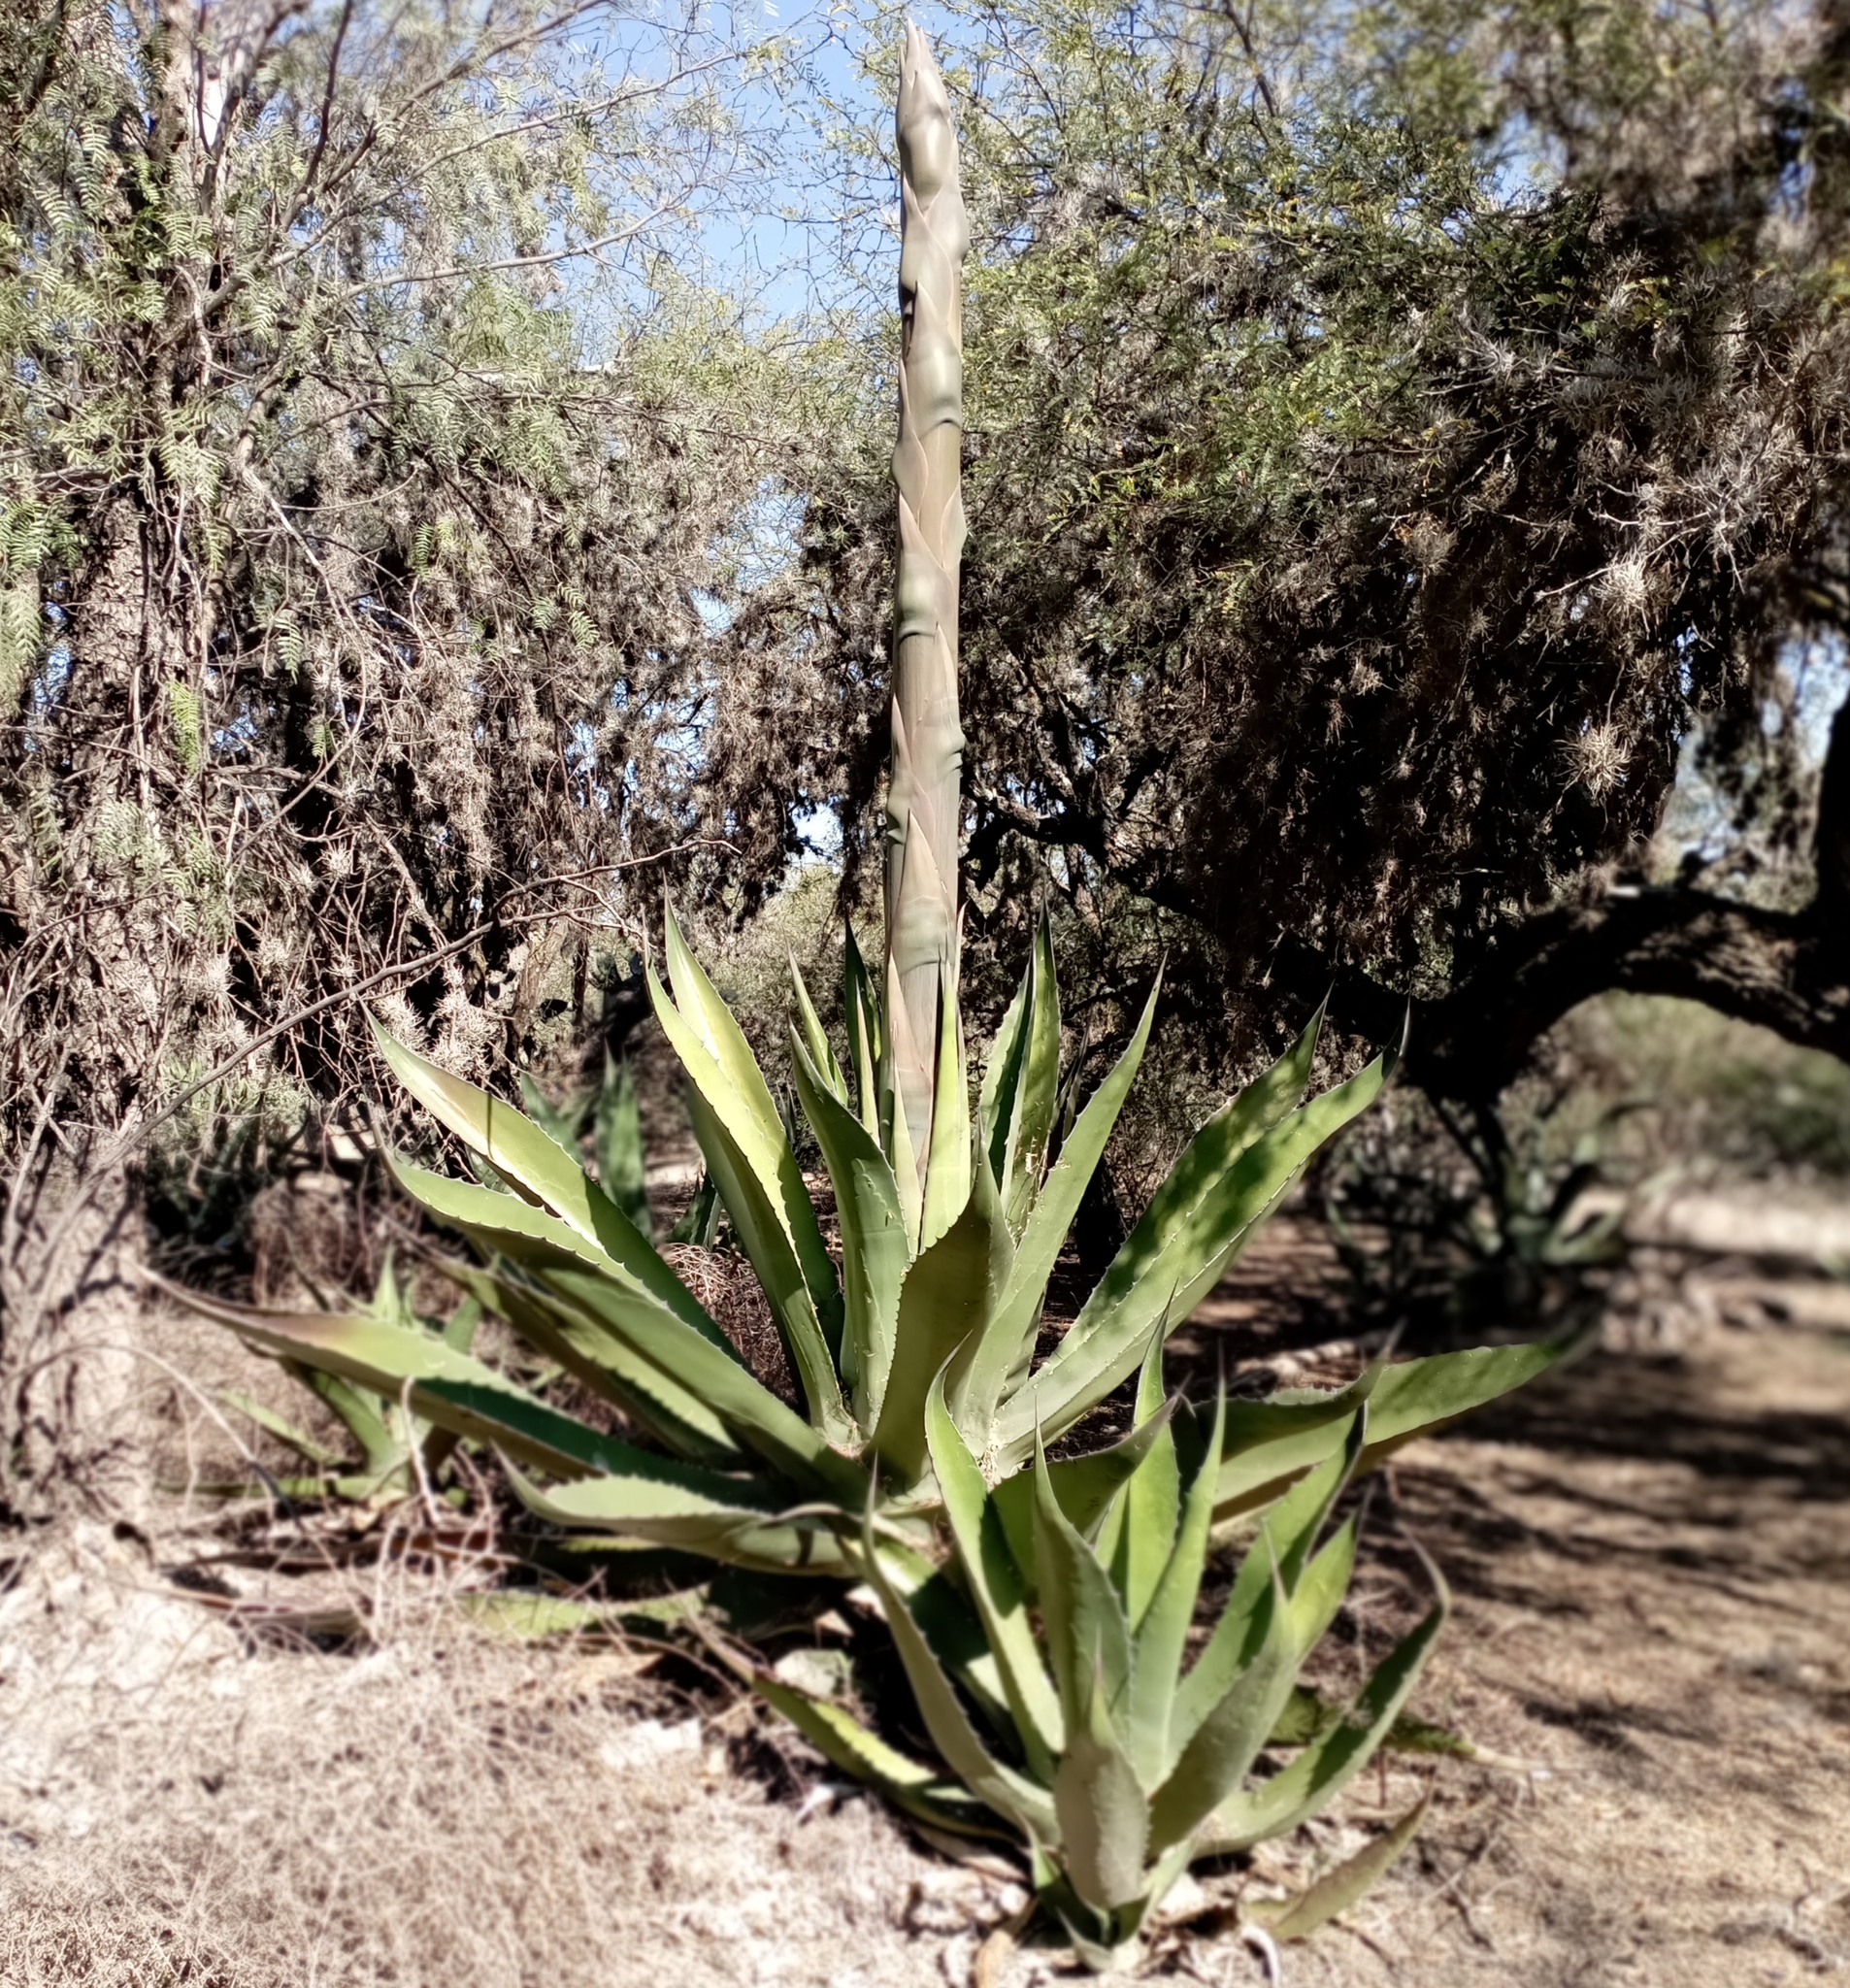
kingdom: Plantae
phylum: Tracheophyta
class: Liliopsida
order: Asparagales
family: Asparagaceae
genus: Agave
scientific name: Agave salmiana
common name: Pulque agave
